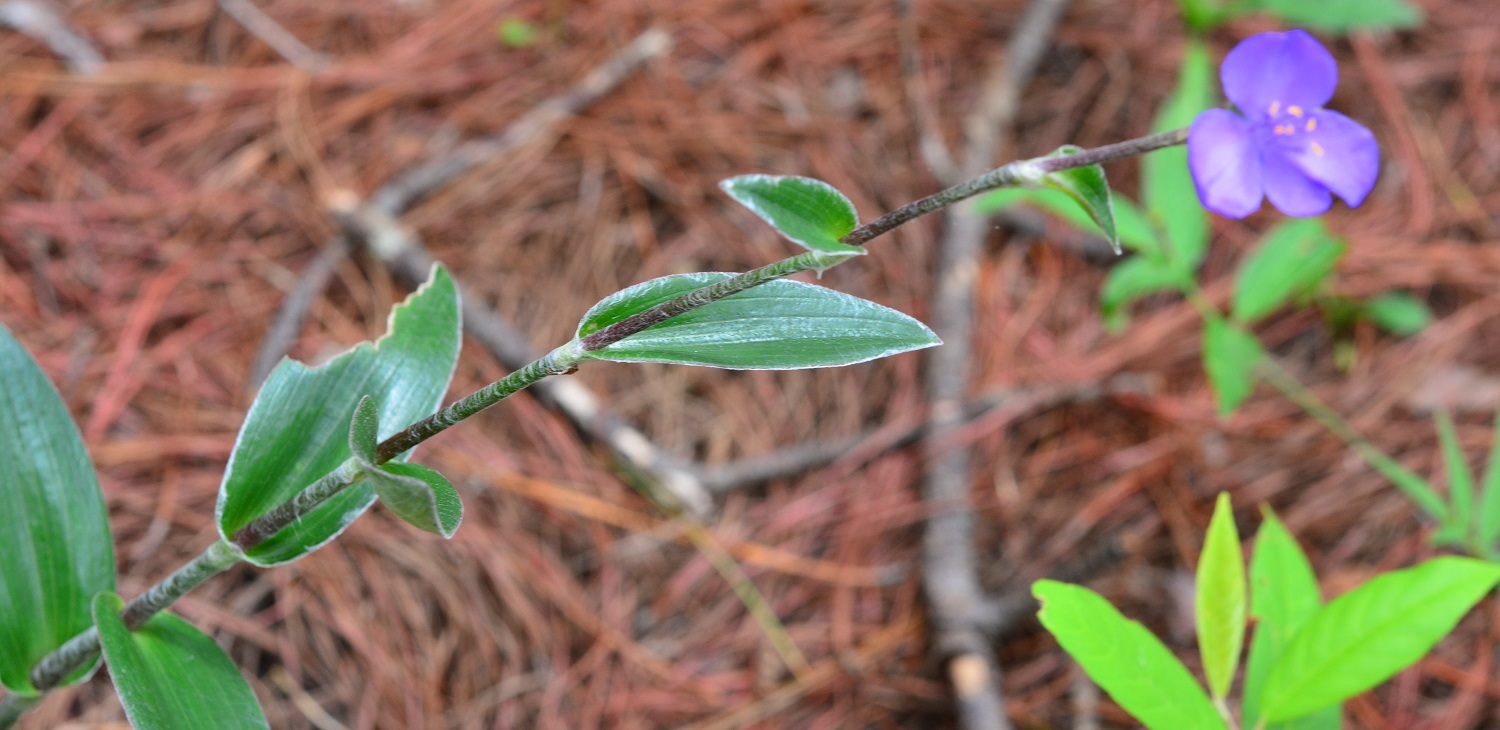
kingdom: Plantae
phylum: Tracheophyta
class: Liliopsida
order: Commelinales
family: Commelinaceae
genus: Tradescantia
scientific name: Tradescantia crassifolia
